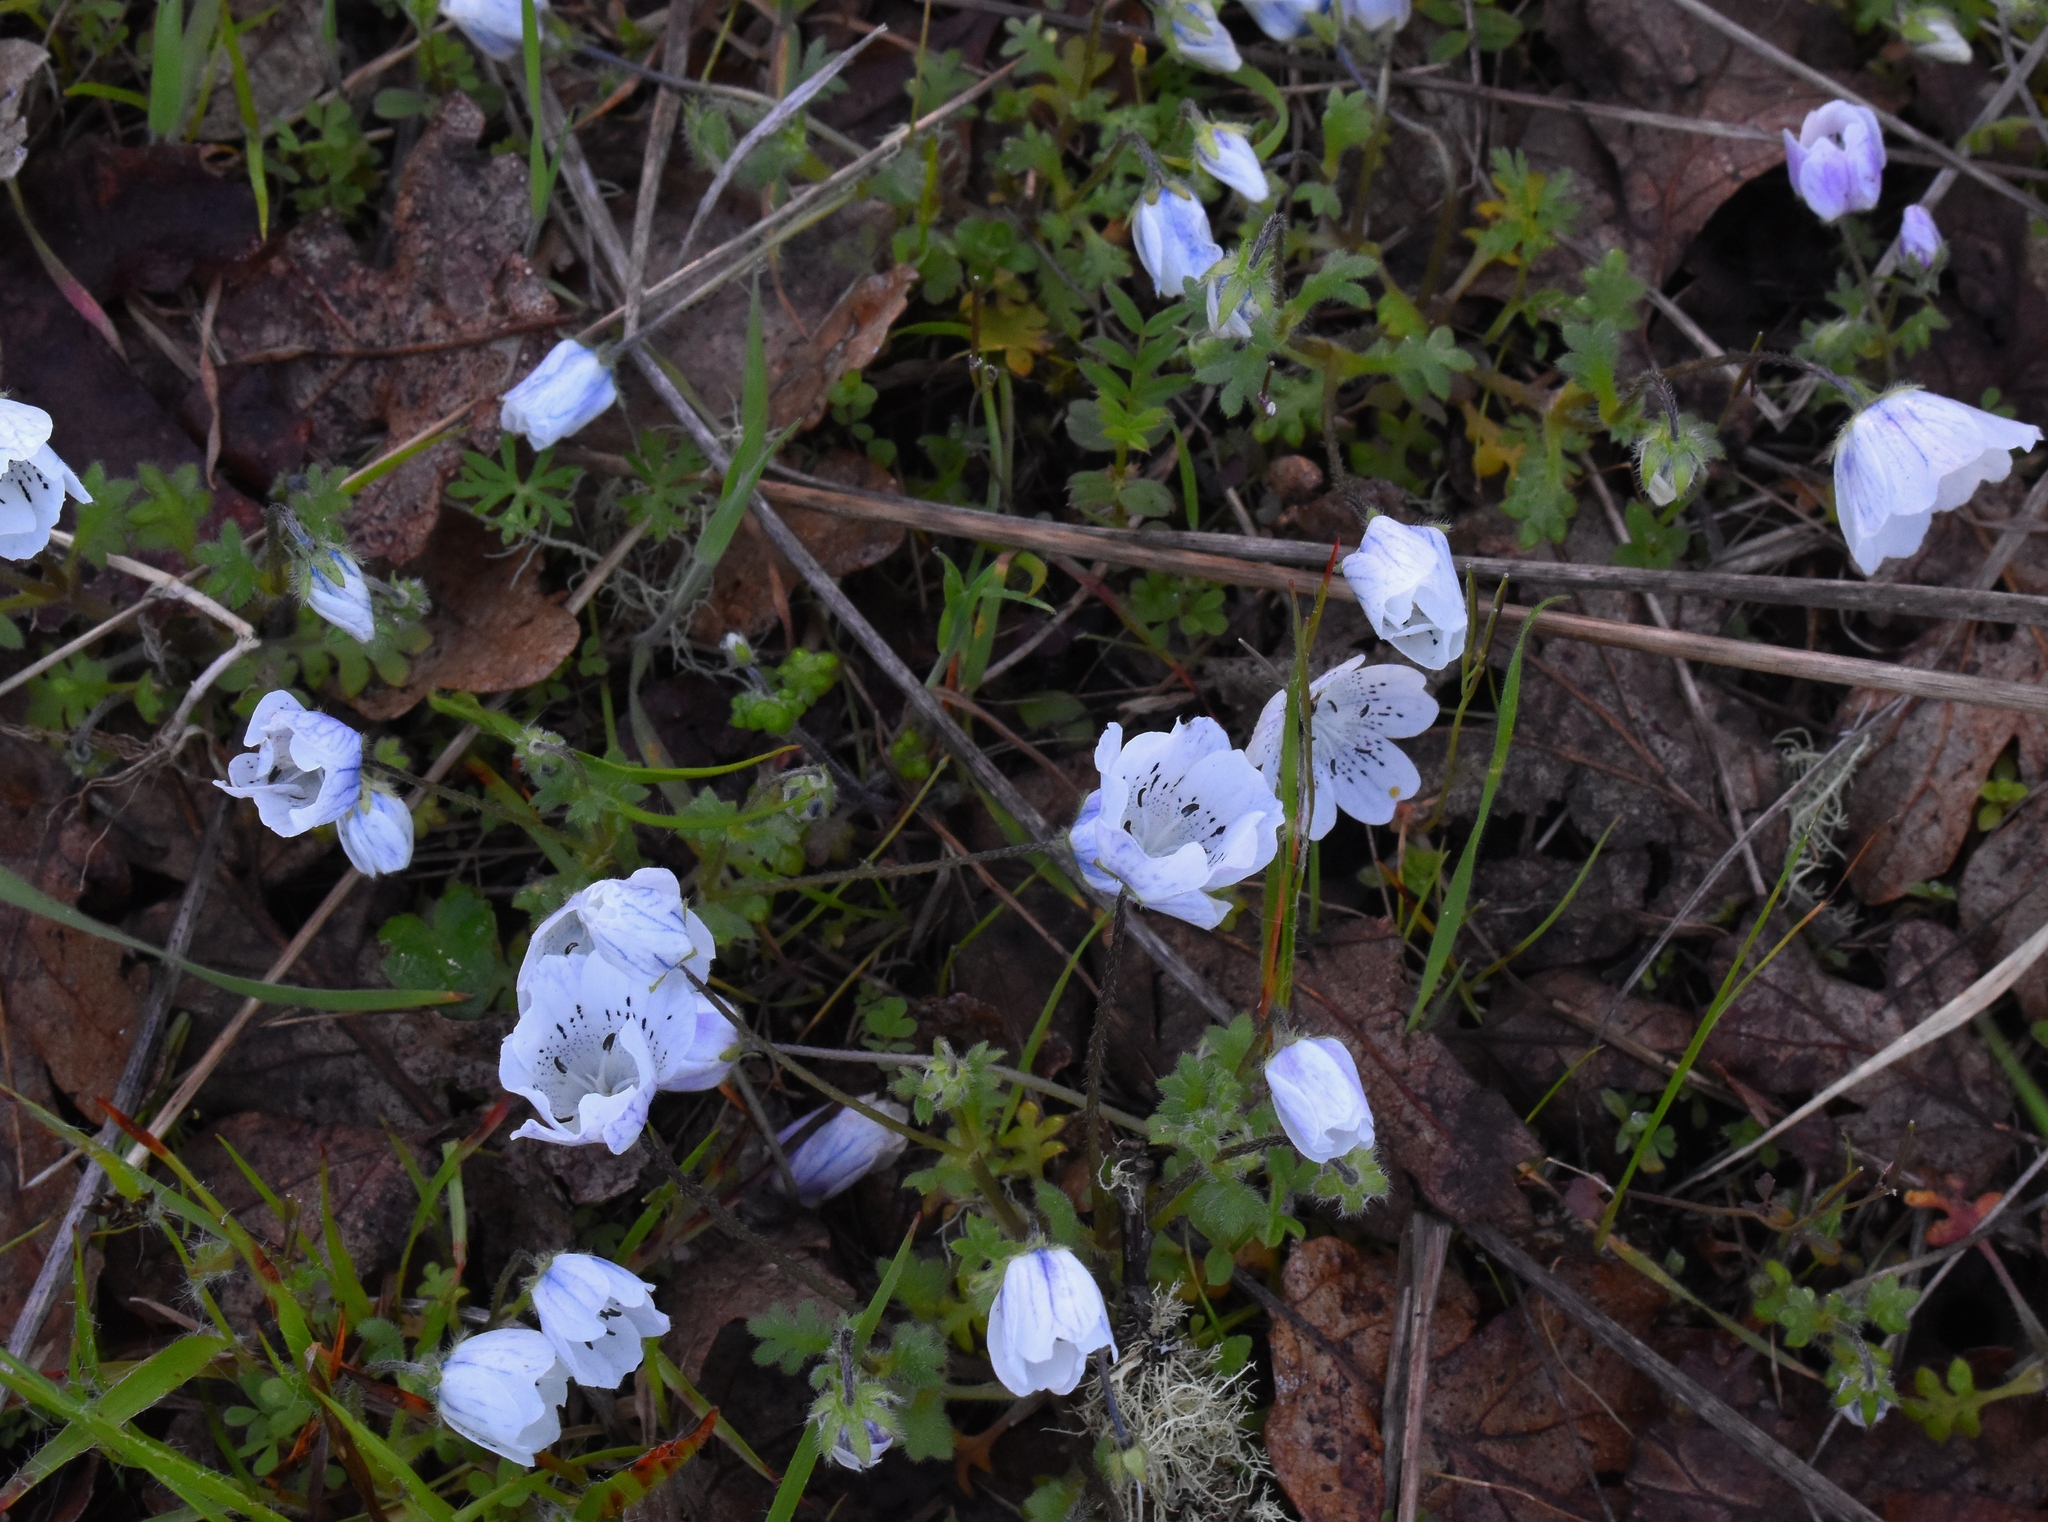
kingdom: Plantae
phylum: Tracheophyta
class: Magnoliopsida
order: Boraginales
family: Hydrophyllaceae
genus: Nemophila
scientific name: Nemophila menziesii
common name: Baby's-blue-eyes
